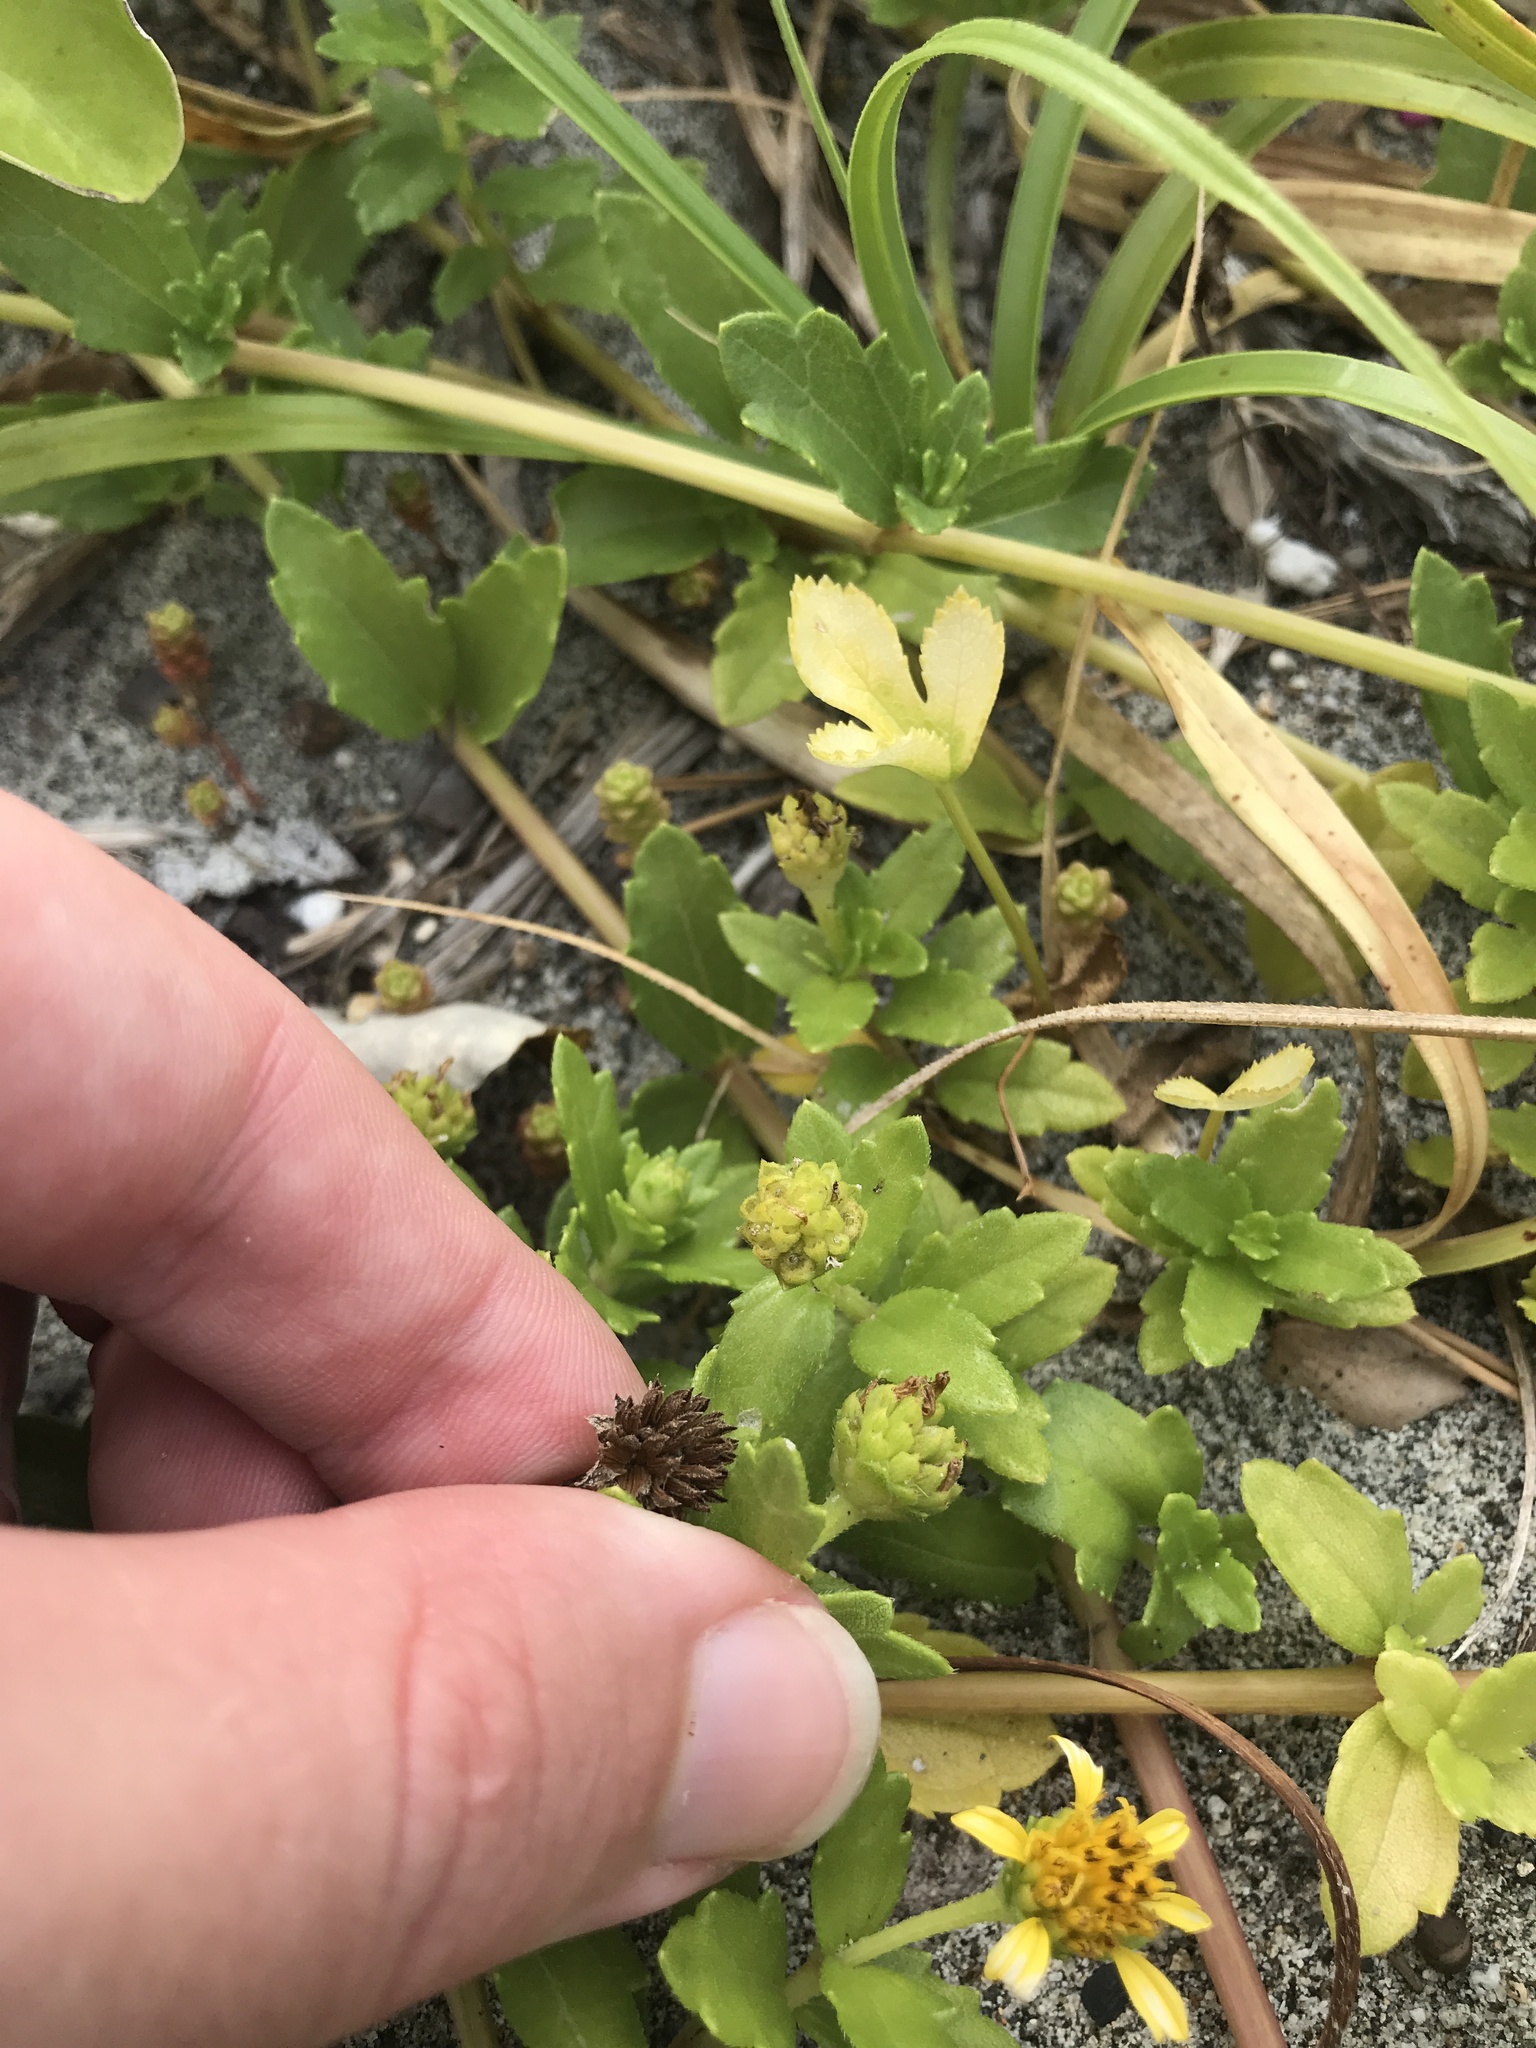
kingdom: Plantae
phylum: Tracheophyta
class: Magnoliopsida
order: Asterales
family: Asteraceae
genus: Melanthera
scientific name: Melanthera prostrata
